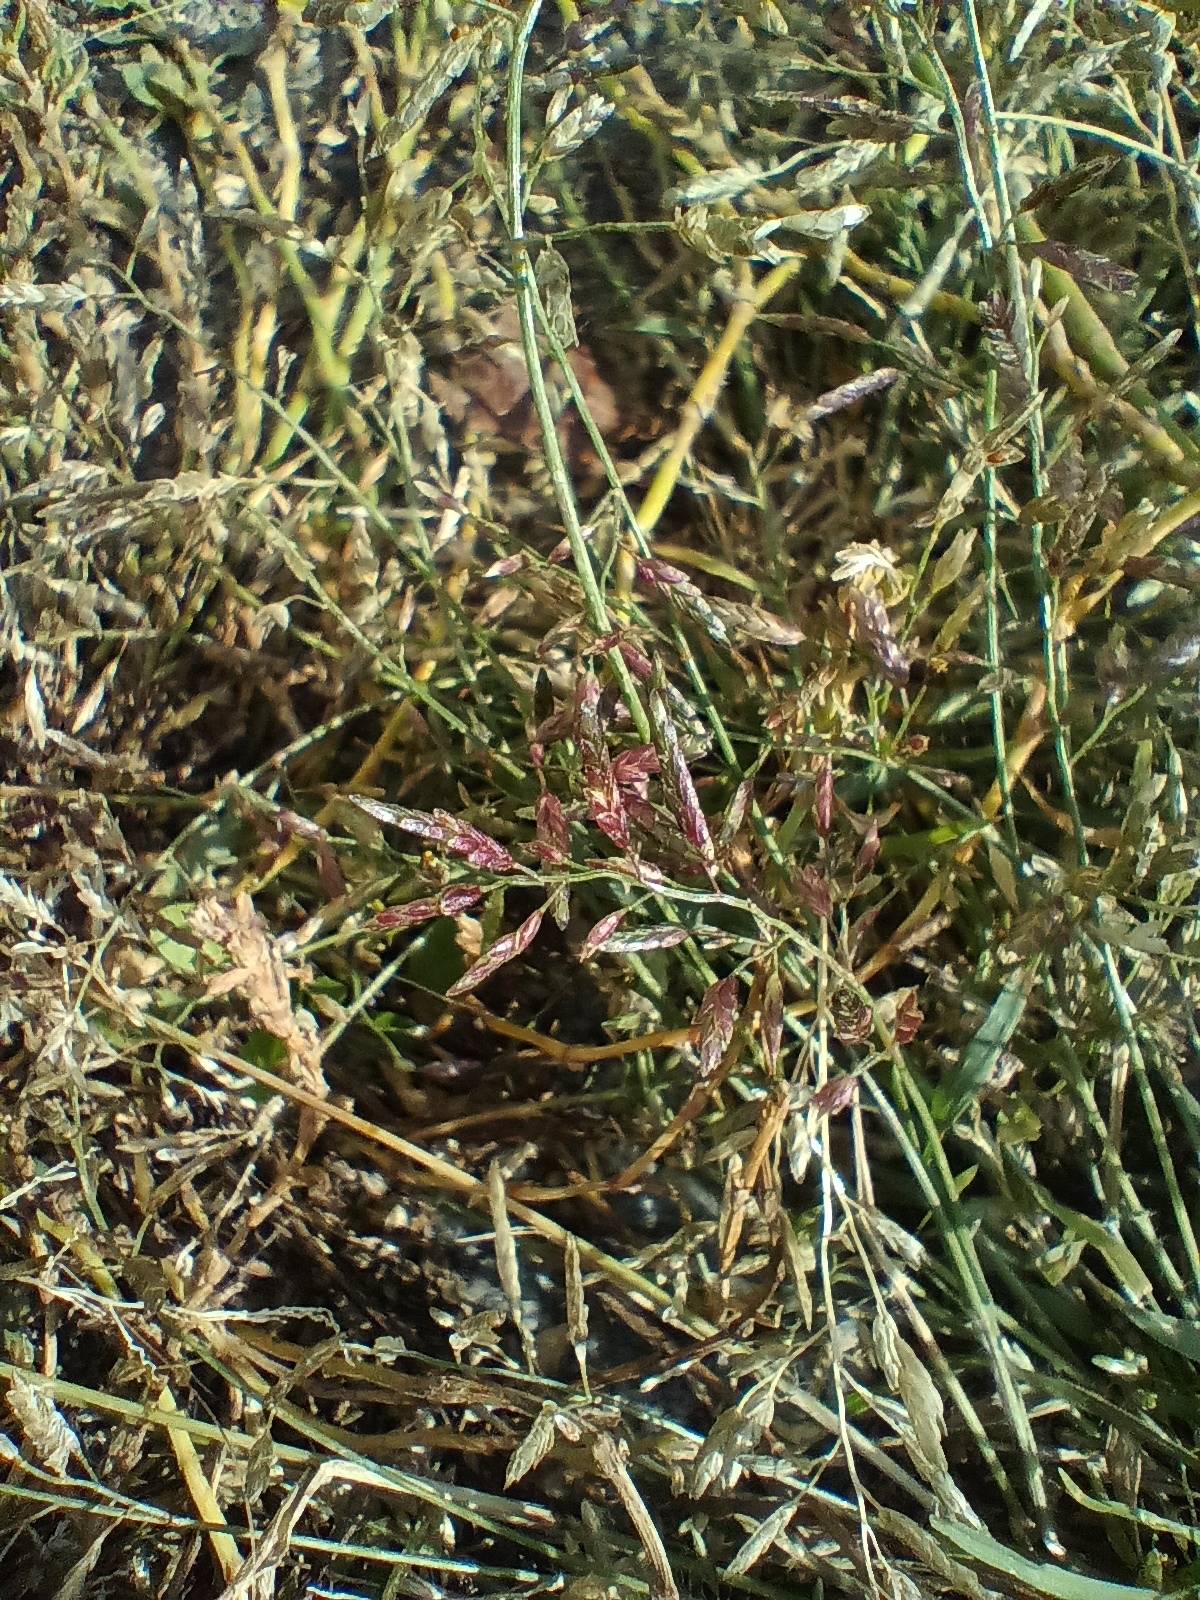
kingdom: Plantae
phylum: Tracheophyta
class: Liliopsida
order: Poales
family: Poaceae
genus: Eragrostis
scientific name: Eragrostis minor
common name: Small love-grass
